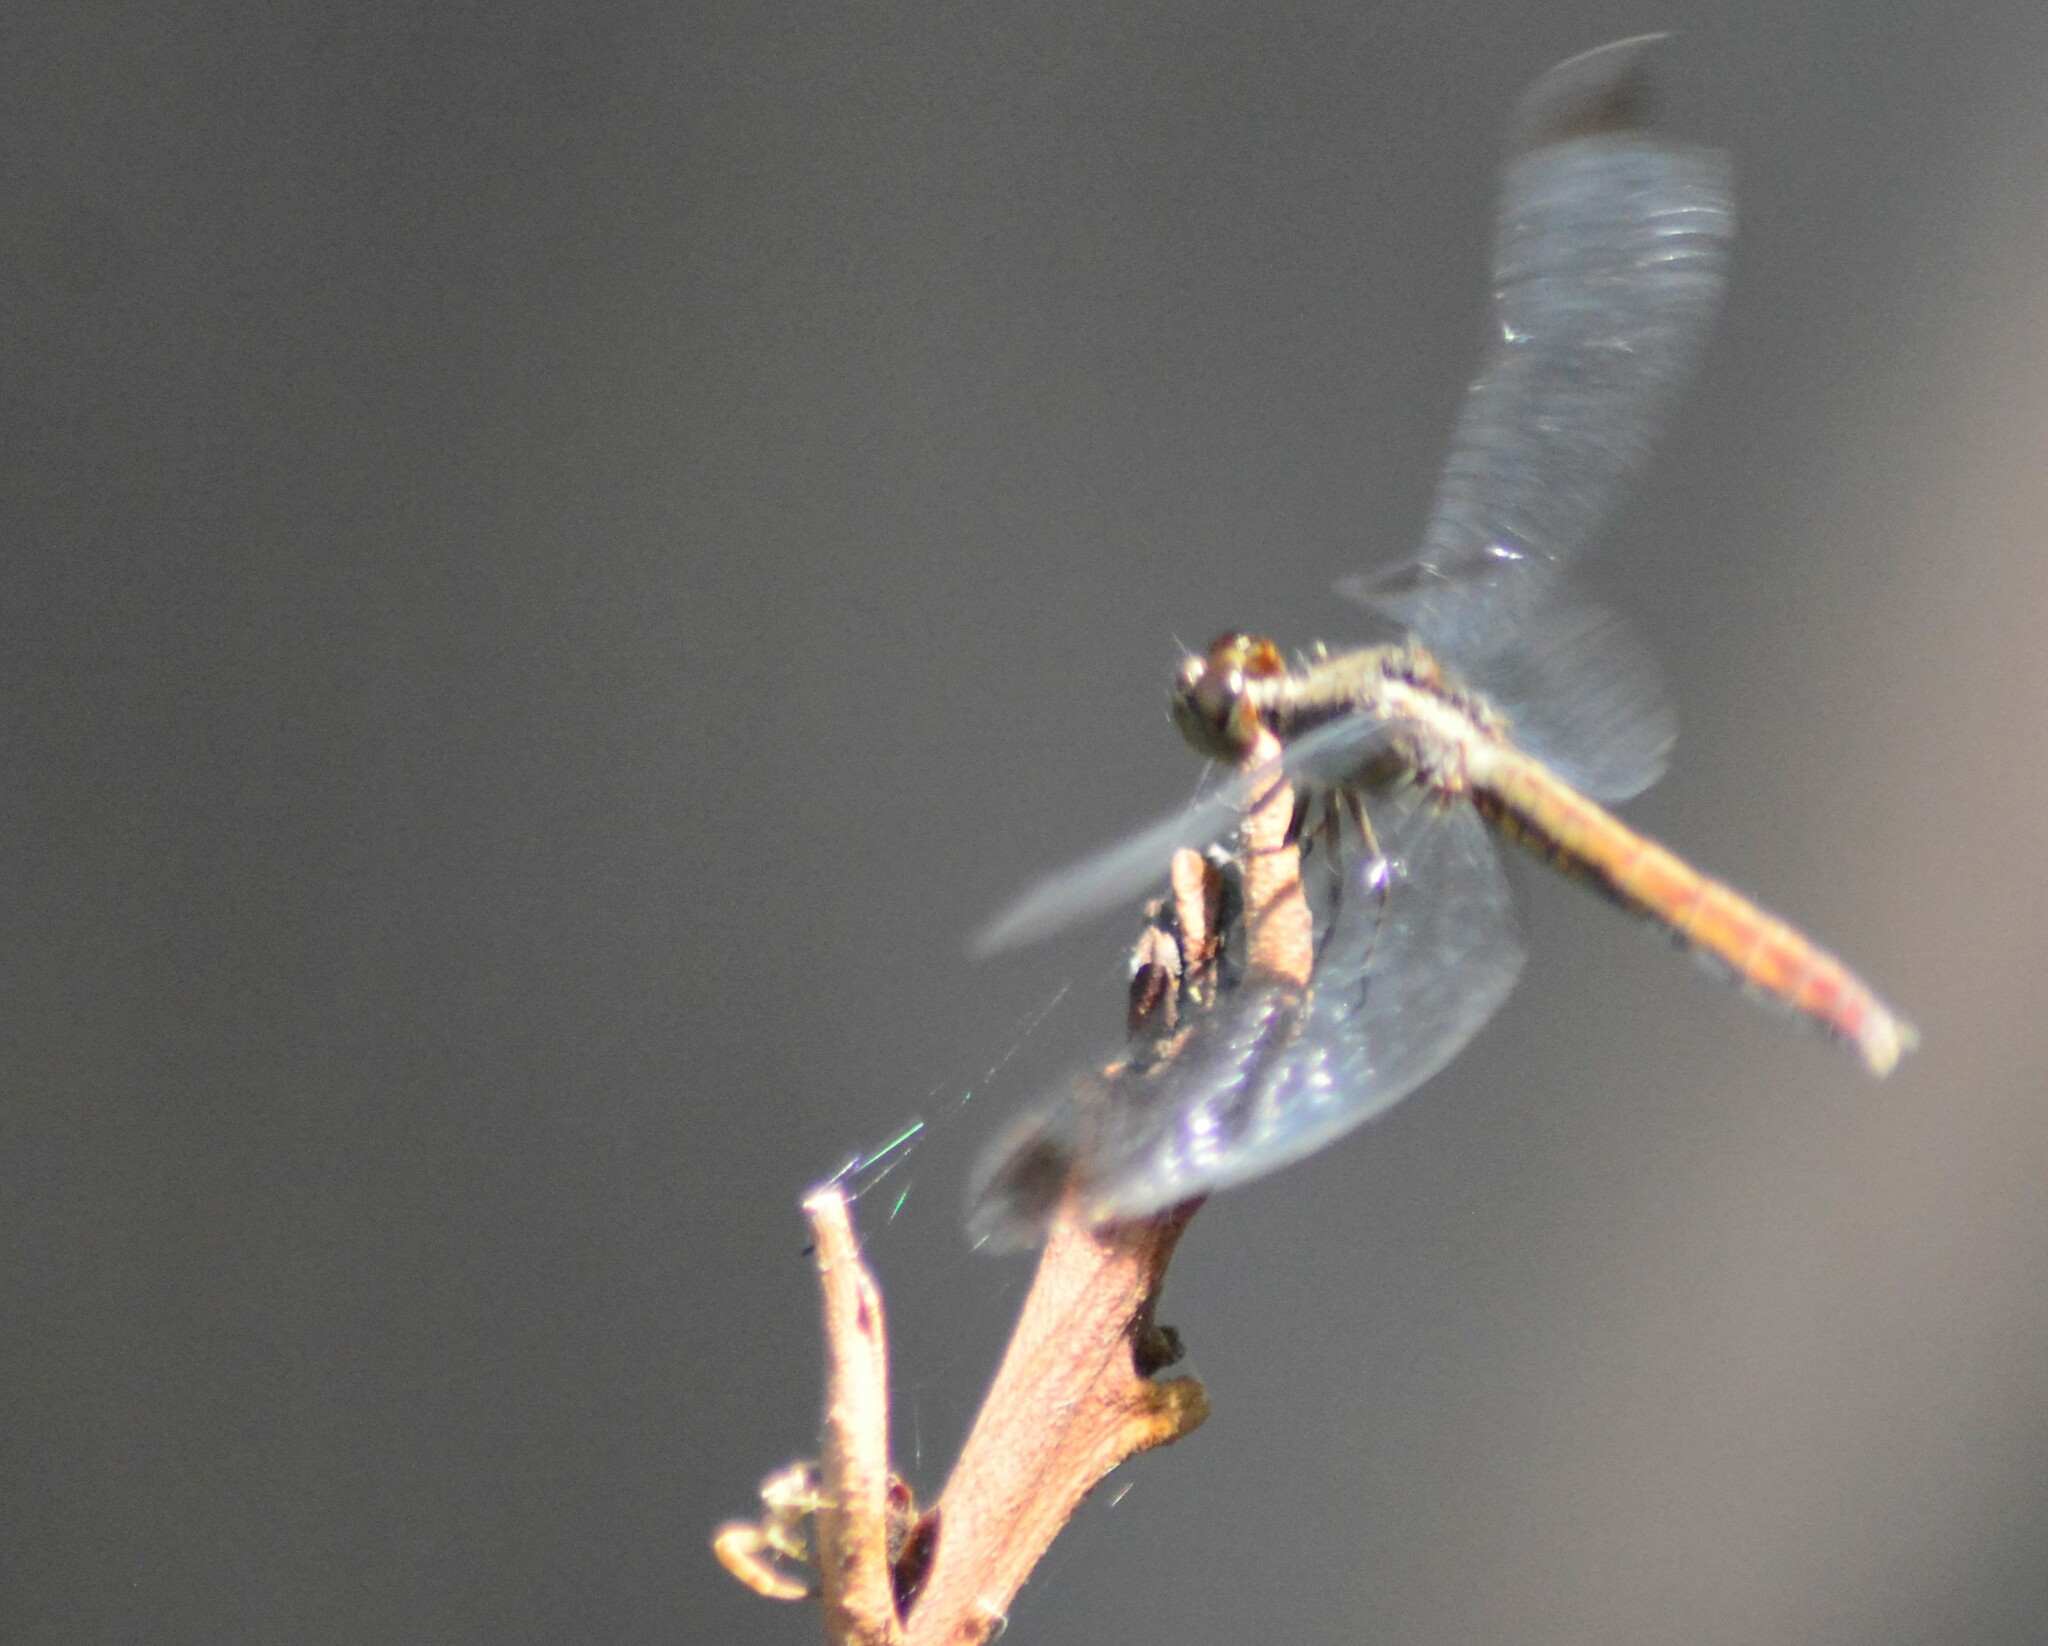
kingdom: Animalia
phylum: Arthropoda
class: Insecta
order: Odonata
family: Libellulidae
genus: Erythrodiplax
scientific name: Erythrodiplax atroterminata
